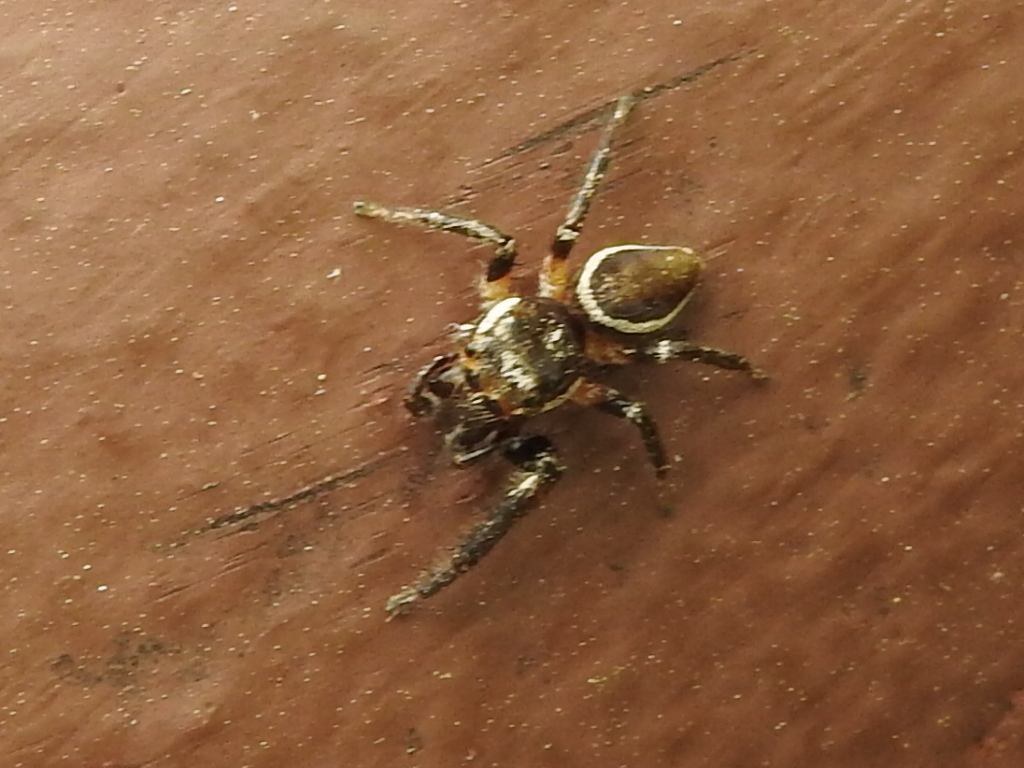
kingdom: Animalia
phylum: Arthropoda
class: Arachnida
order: Araneae
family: Salticidae
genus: Eris
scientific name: Eris militaris
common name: Bronze jumper
